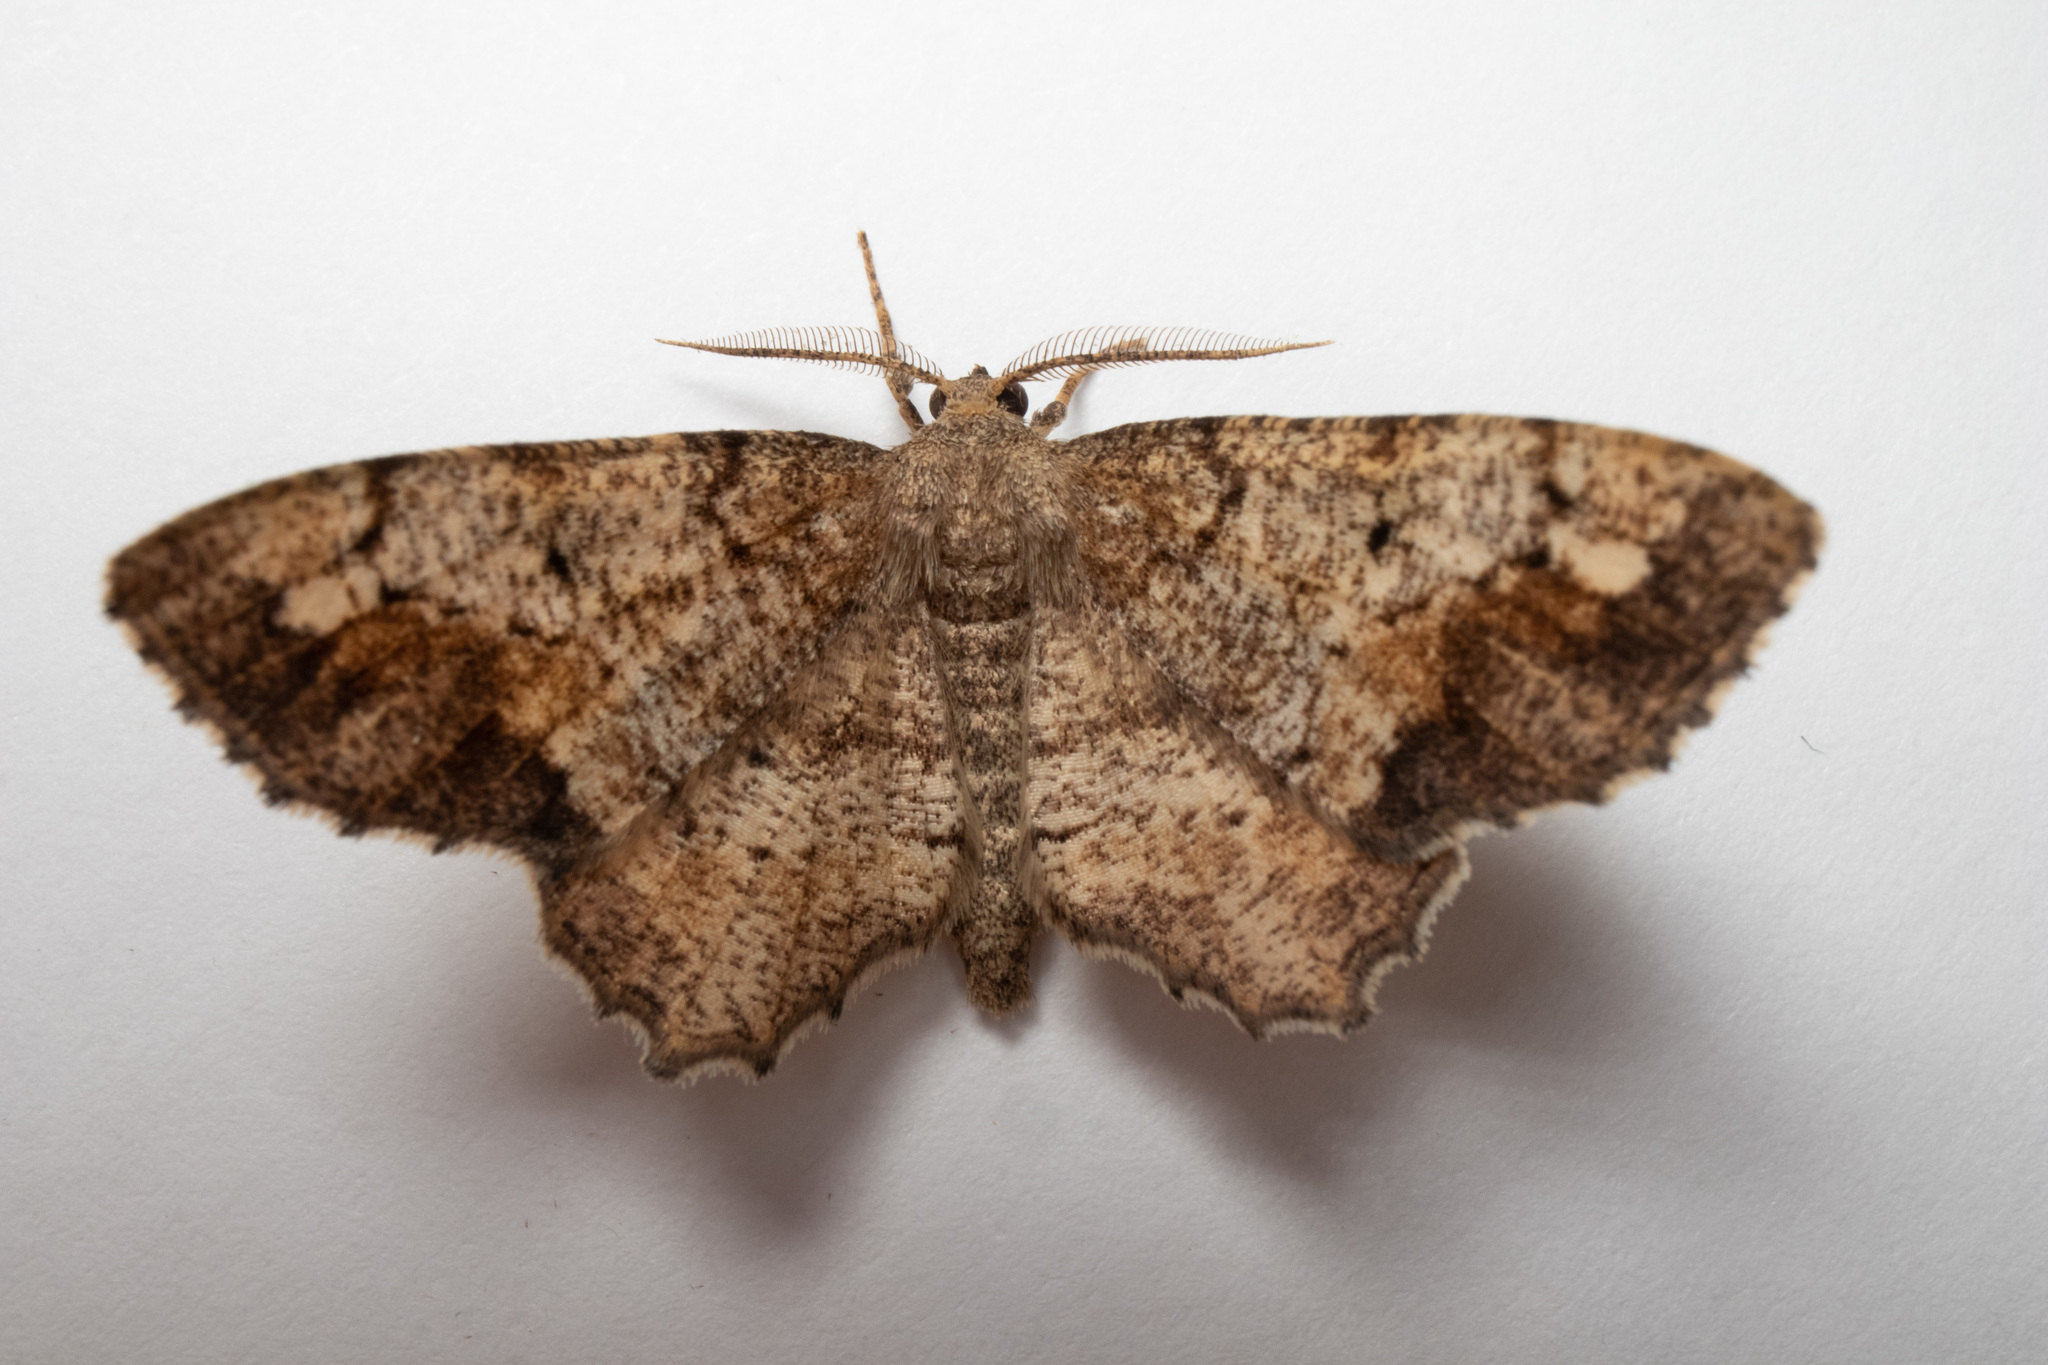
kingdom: Animalia
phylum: Arthropoda
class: Insecta
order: Lepidoptera
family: Geometridae
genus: Hypagyrtis
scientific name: Hypagyrtis unipunctata
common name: One-spotted variant
